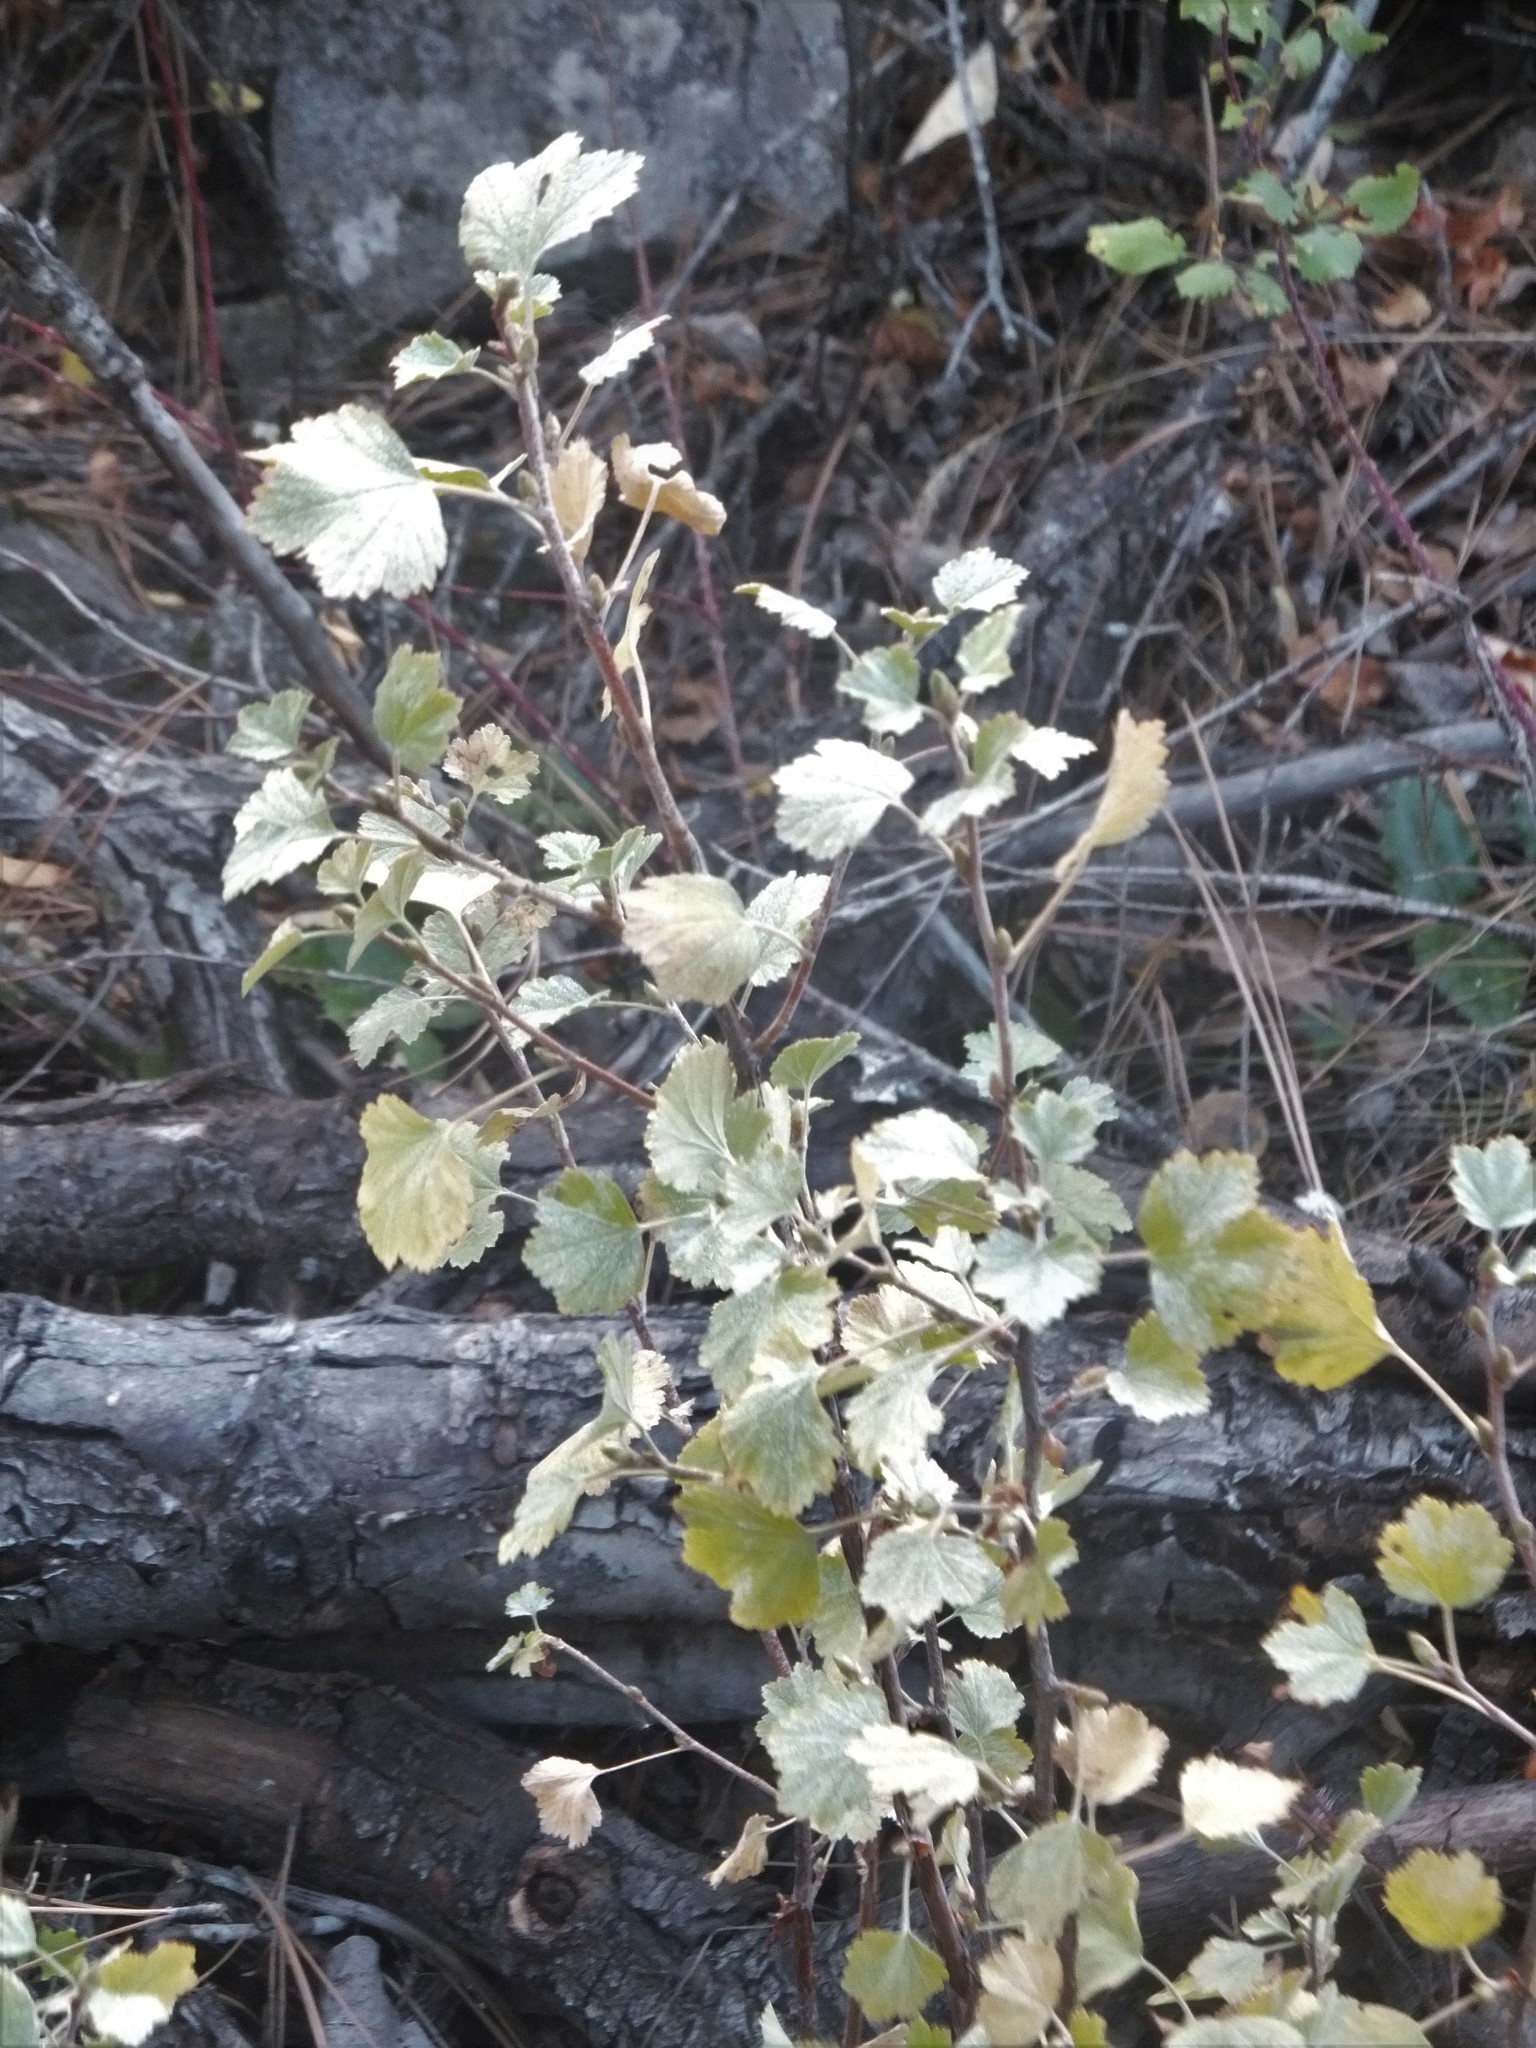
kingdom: Plantae
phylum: Tracheophyta
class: Magnoliopsida
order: Saxifragales
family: Grossulariaceae
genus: Ribes
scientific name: Ribes cereum
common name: Wax currant
